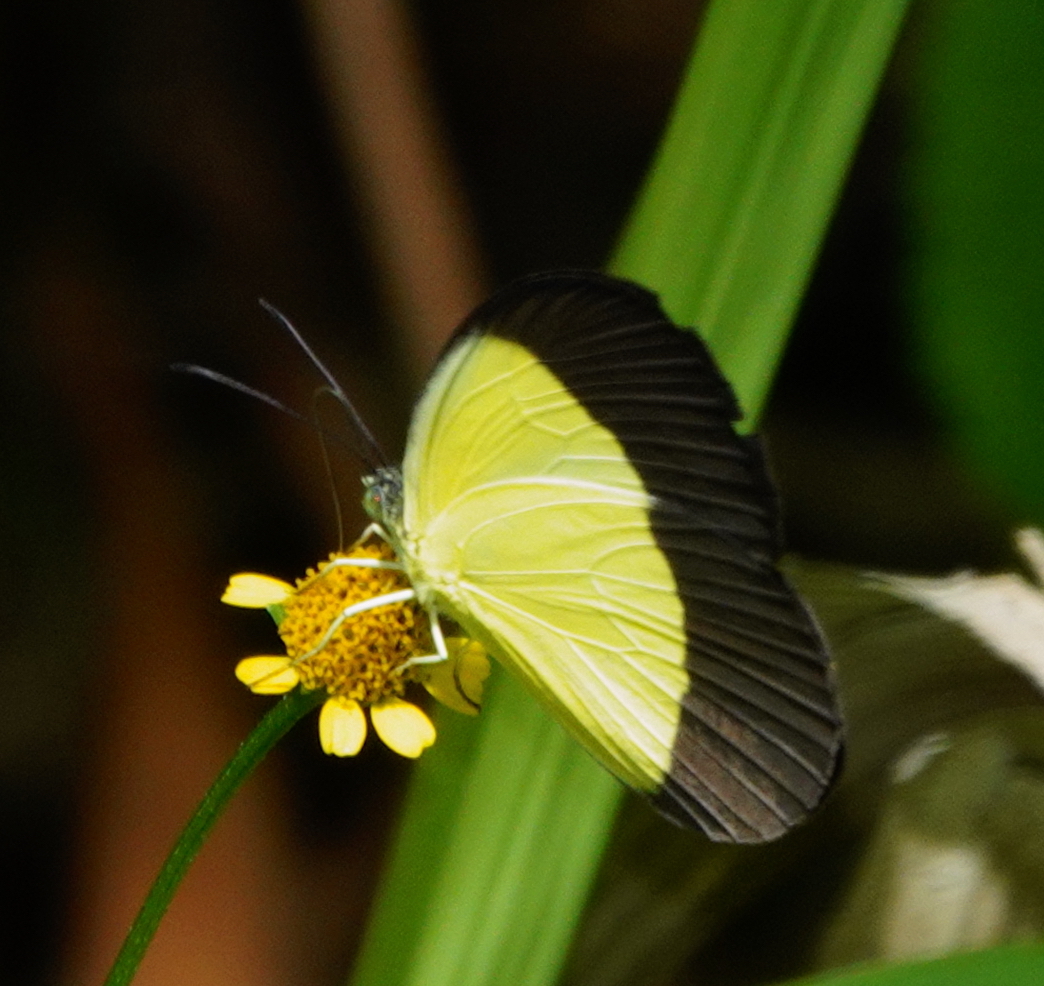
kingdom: Animalia
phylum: Arthropoda
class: Insecta
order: Lepidoptera
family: Pieridae
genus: Eurema
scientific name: Eurema candida
